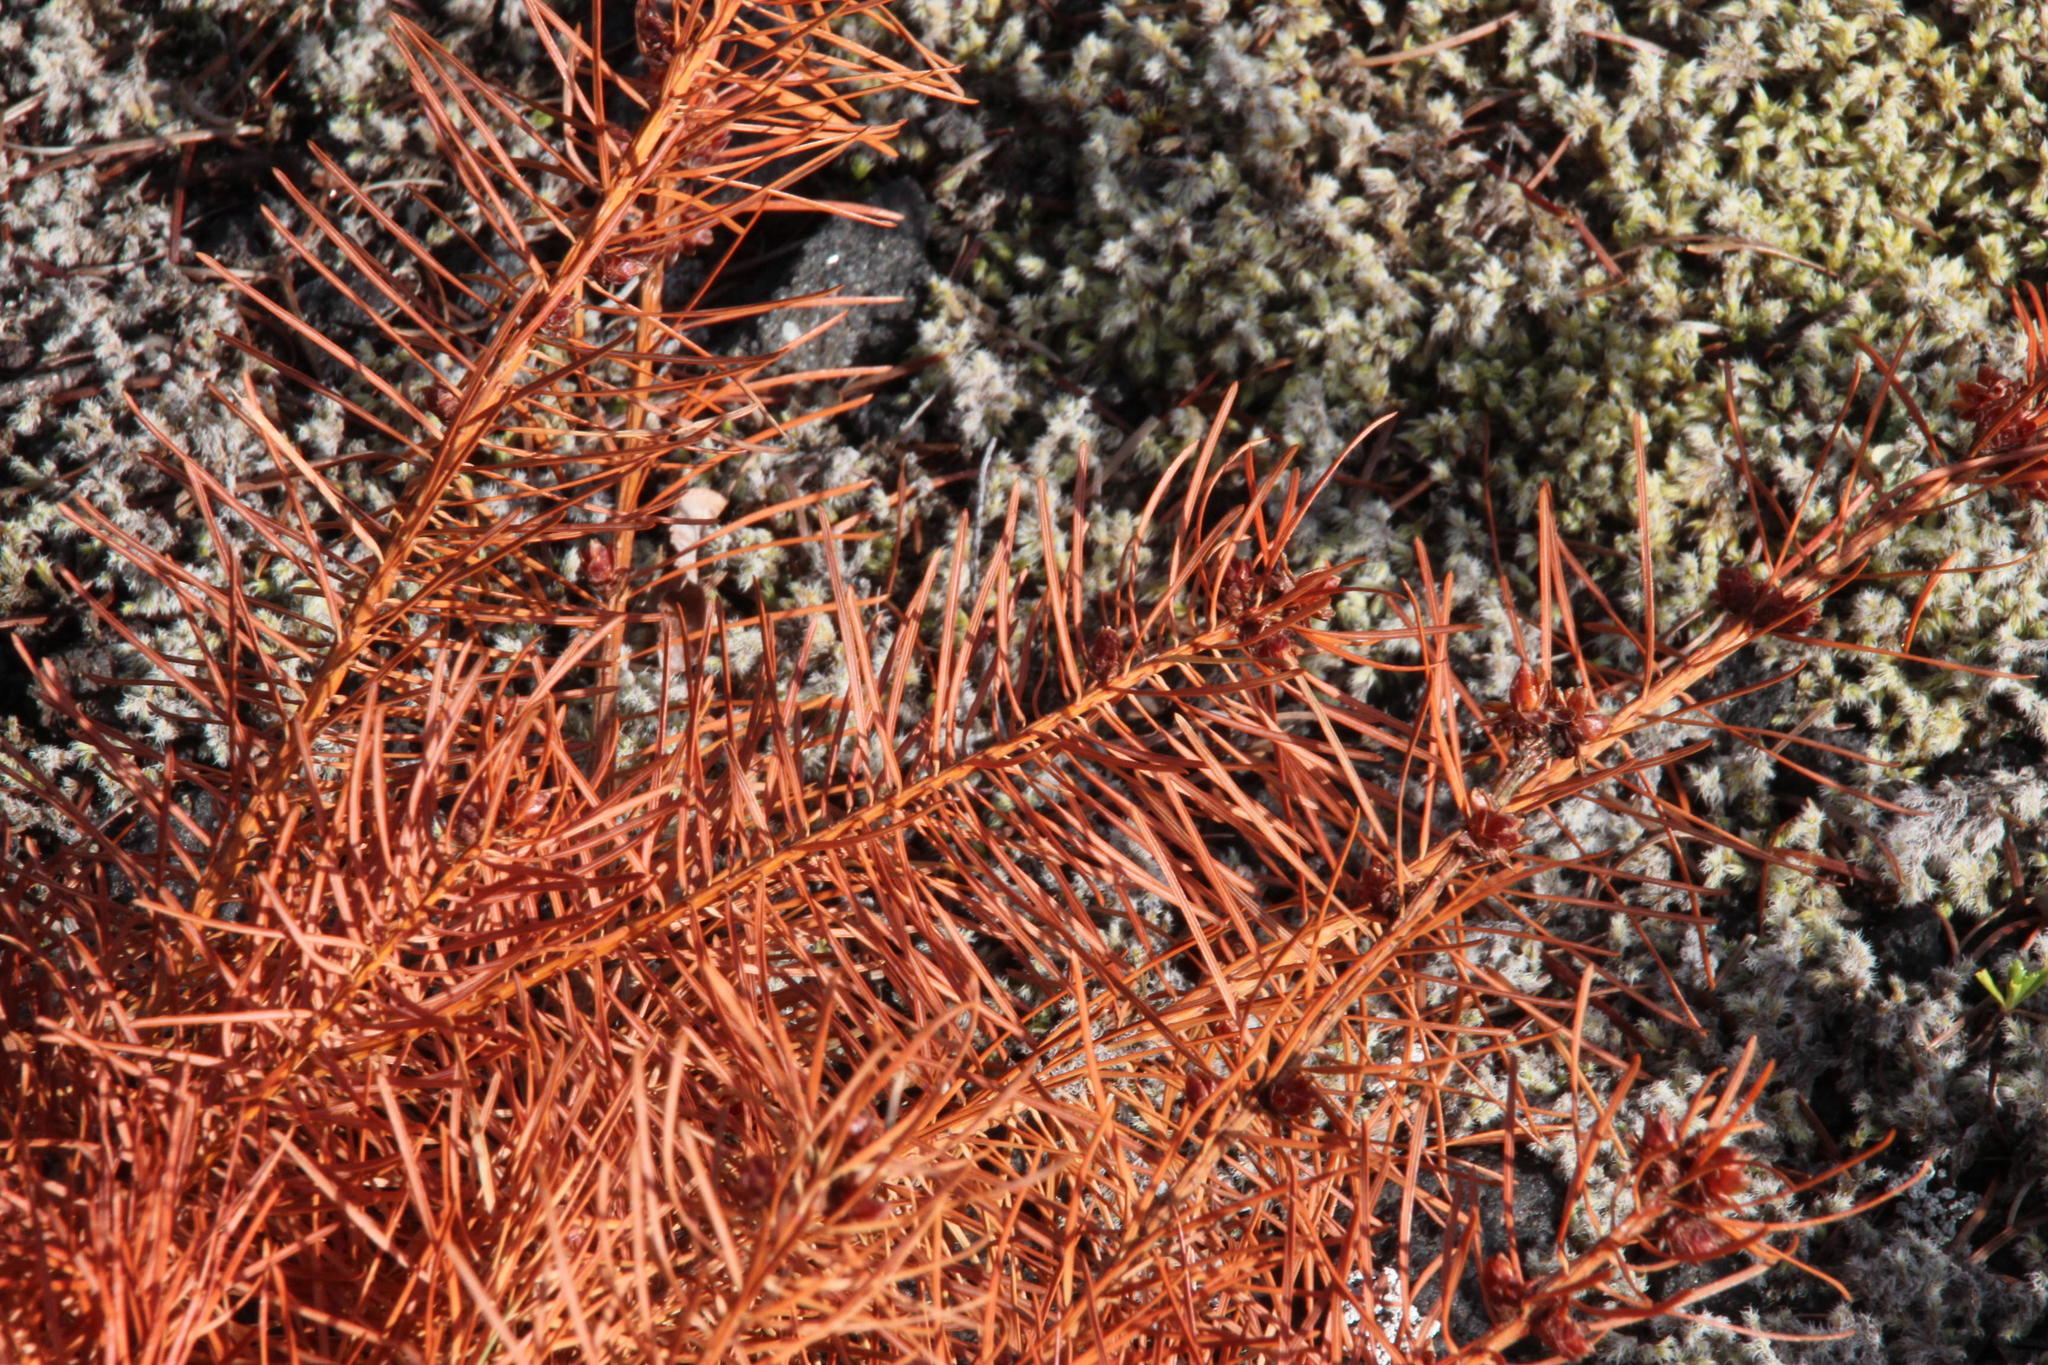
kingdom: Plantae
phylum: Tracheophyta
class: Pinopsida
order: Pinales
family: Pinaceae
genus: Pseudotsuga
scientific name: Pseudotsuga menziesii
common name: Douglas fir
